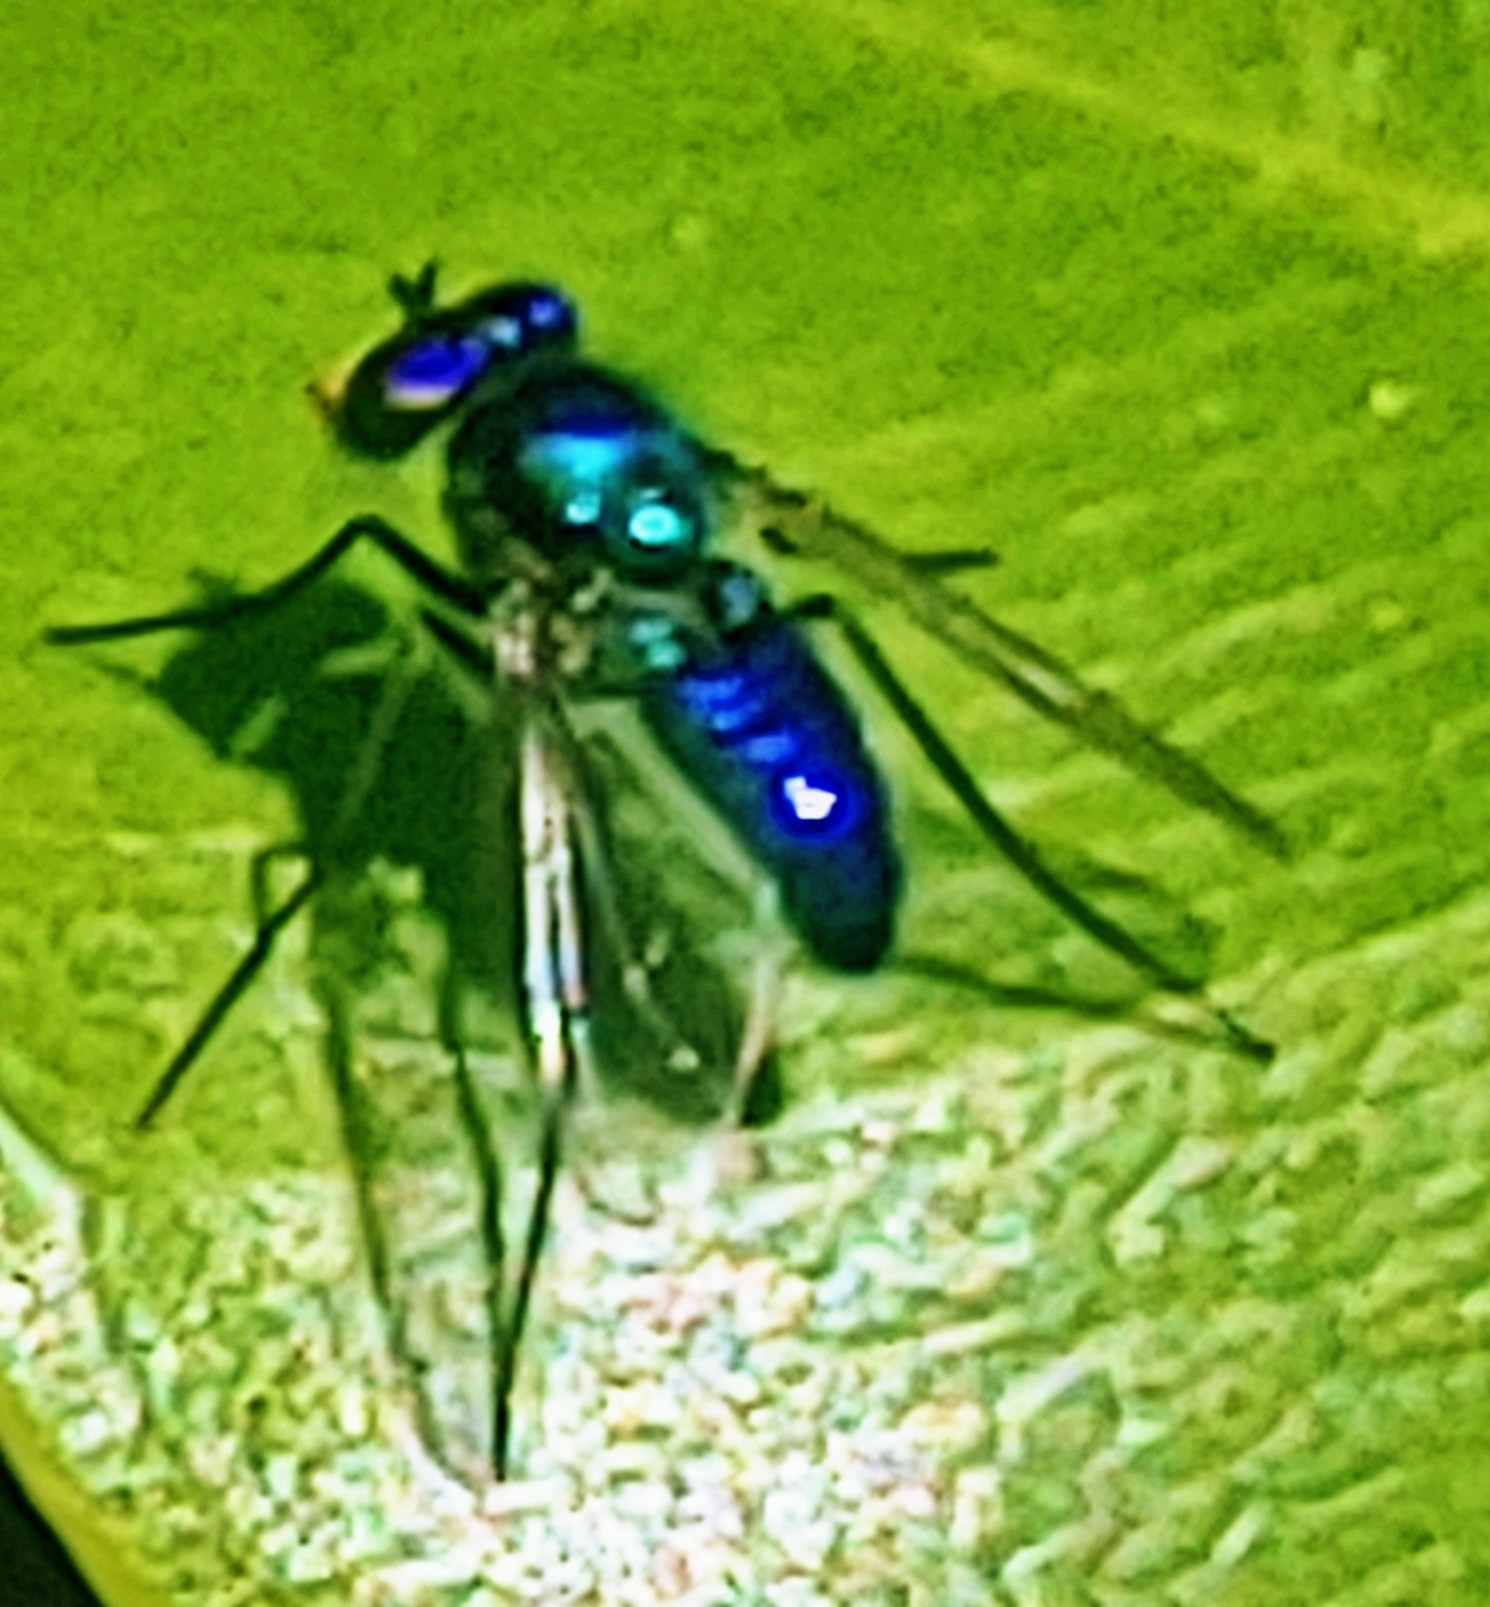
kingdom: Animalia
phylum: Arthropoda
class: Insecta
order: Diptera
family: Dolichopodidae
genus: Condylostylus
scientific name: Condylostylus mundus
